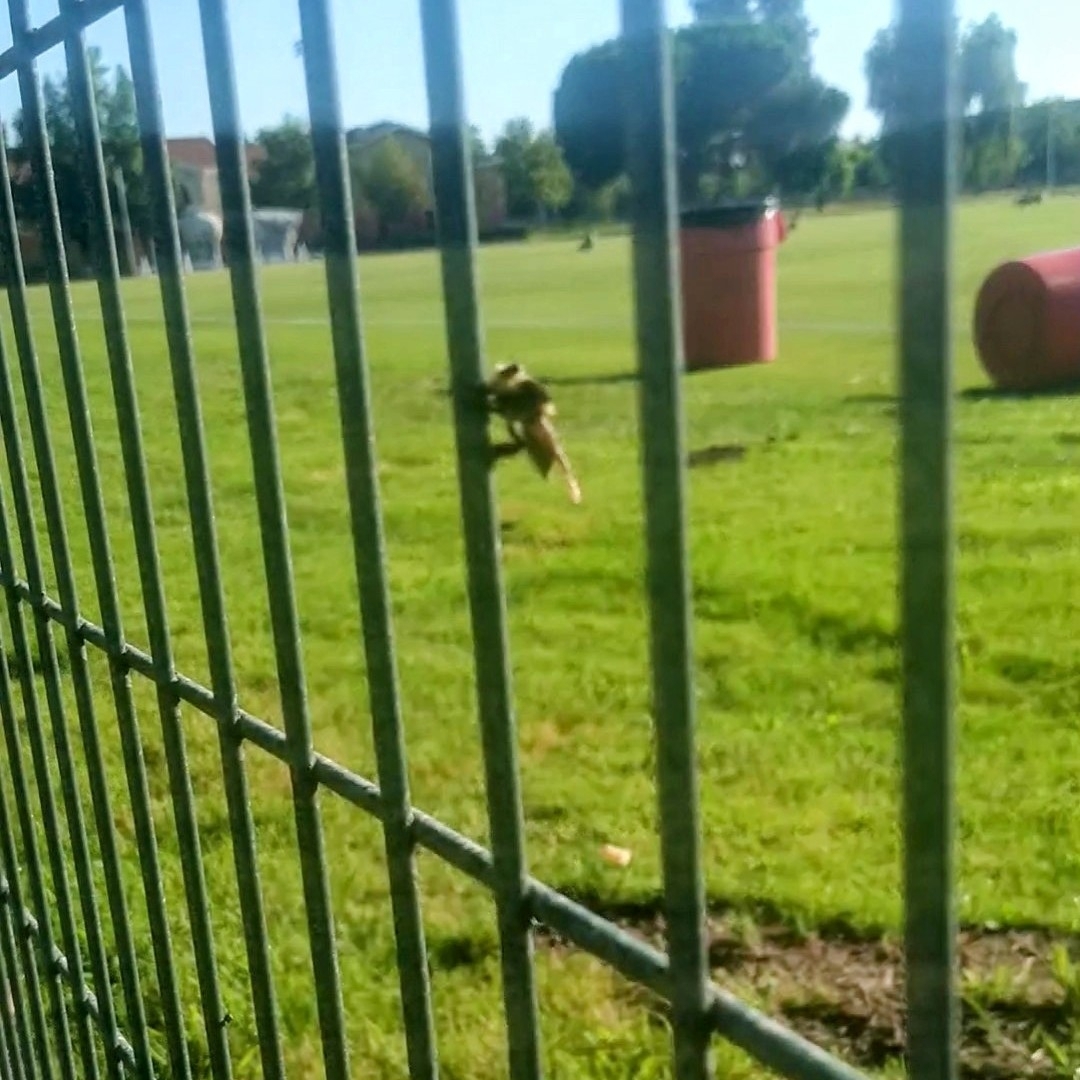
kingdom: Animalia
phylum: Arthropoda
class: Insecta
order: Diptera
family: Asilidae
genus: Mallophora
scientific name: Mallophora fautrix
